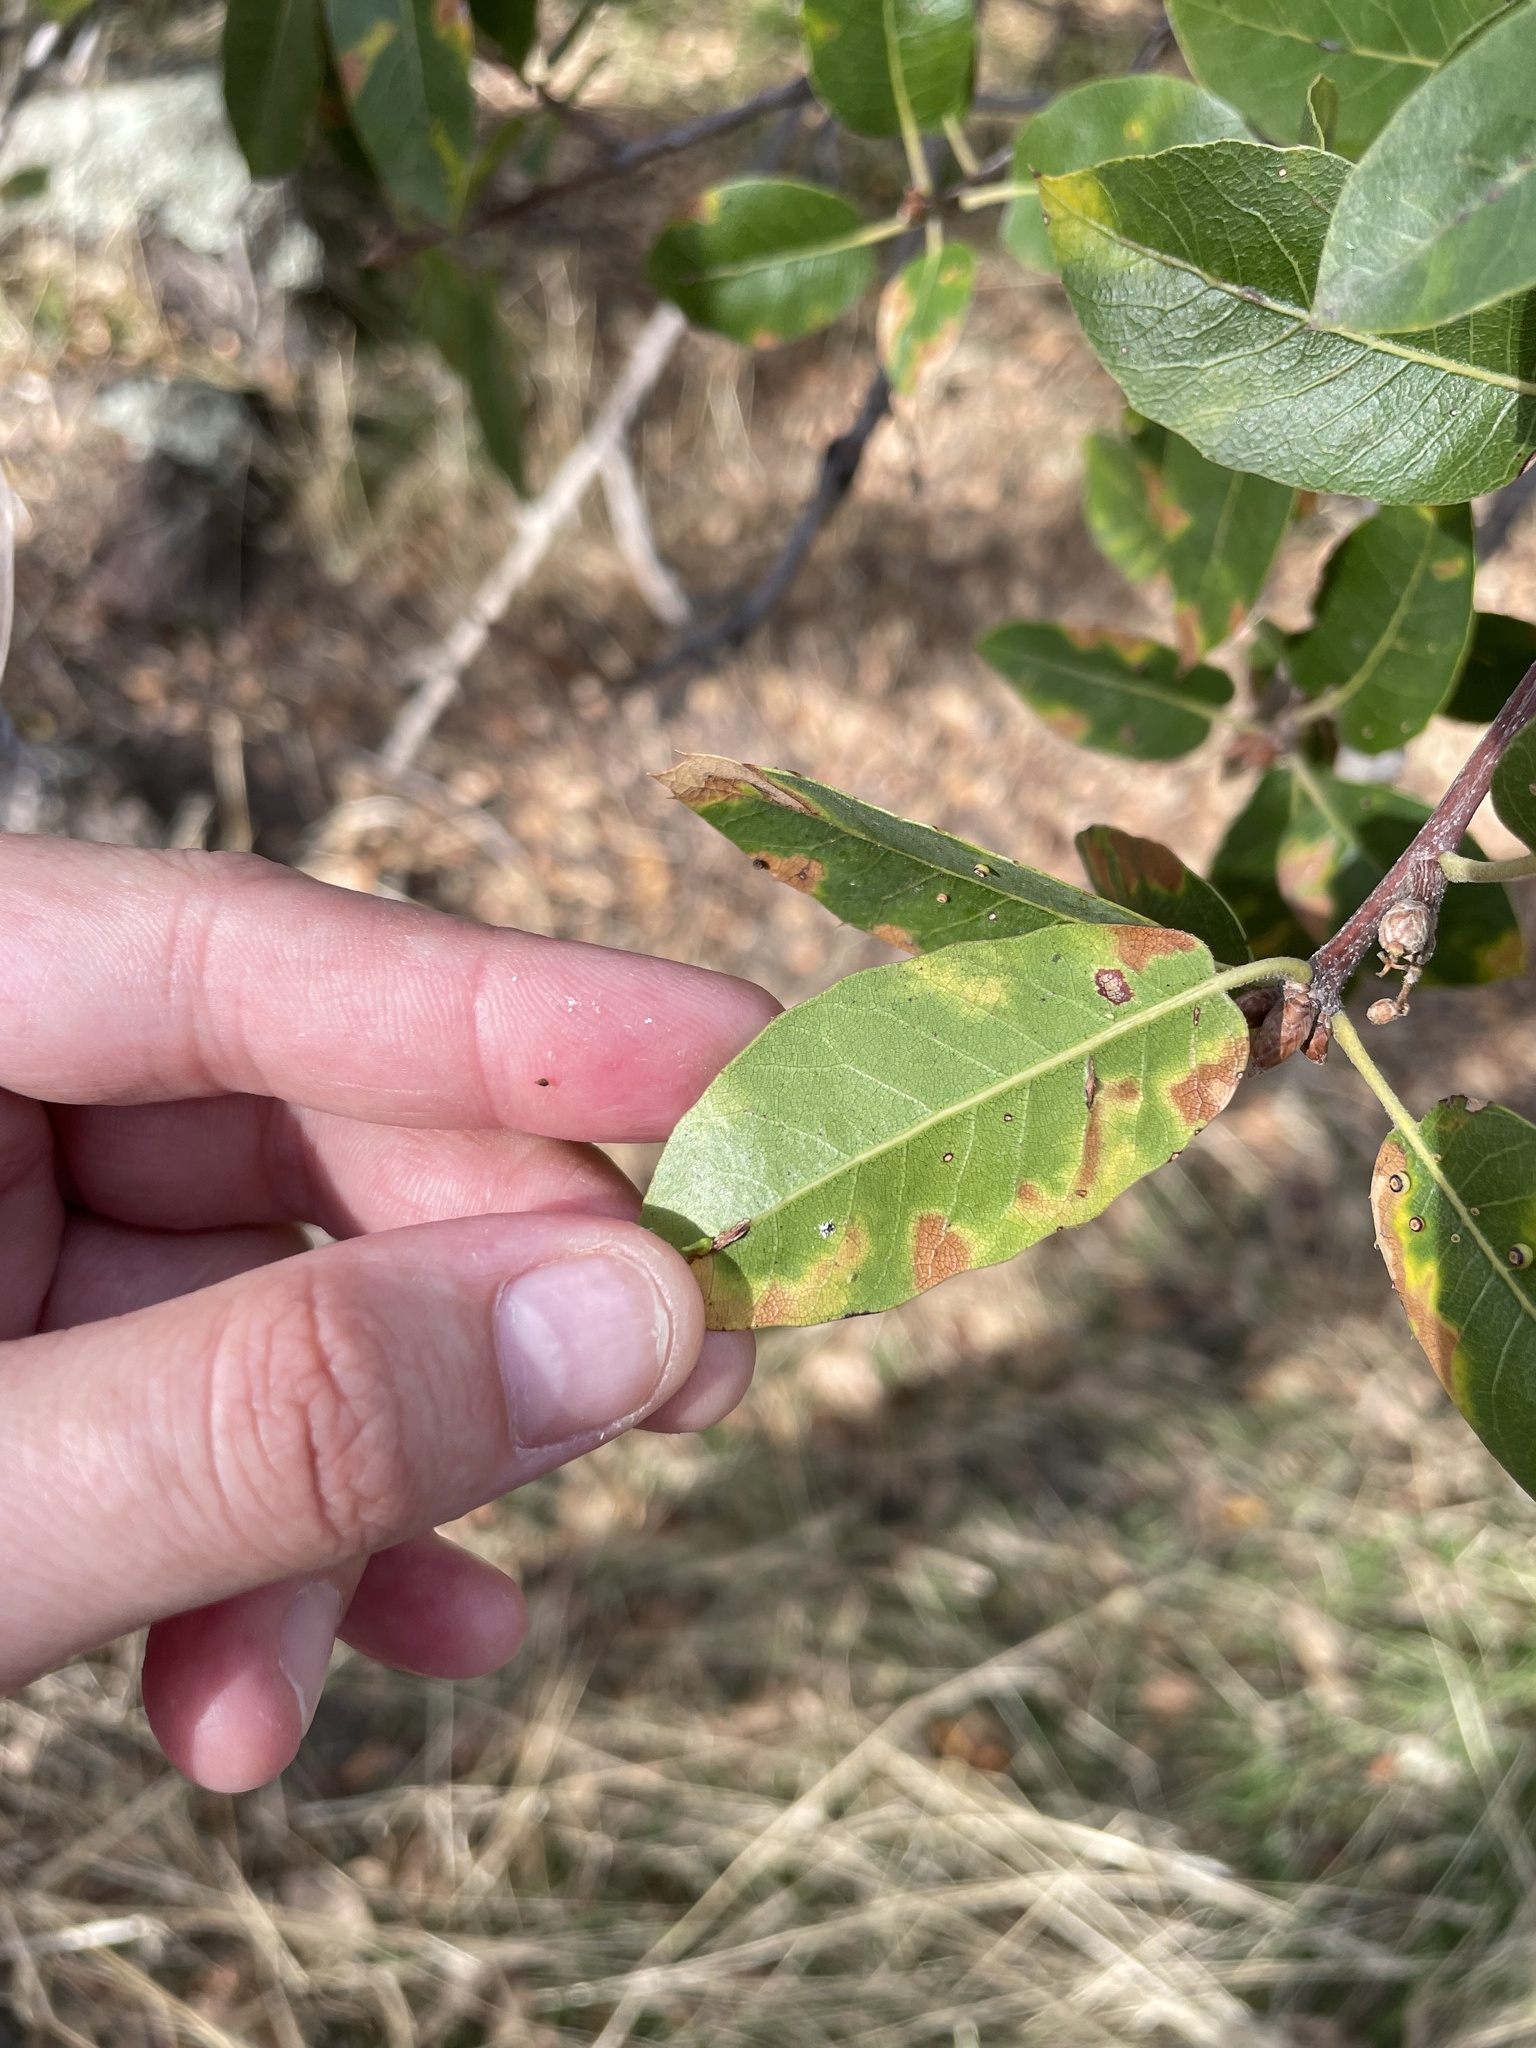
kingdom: Animalia
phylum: Arthropoda
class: Insecta
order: Hymenoptera
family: Cynipidae
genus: Dryocosmus
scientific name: Dryocosmus
